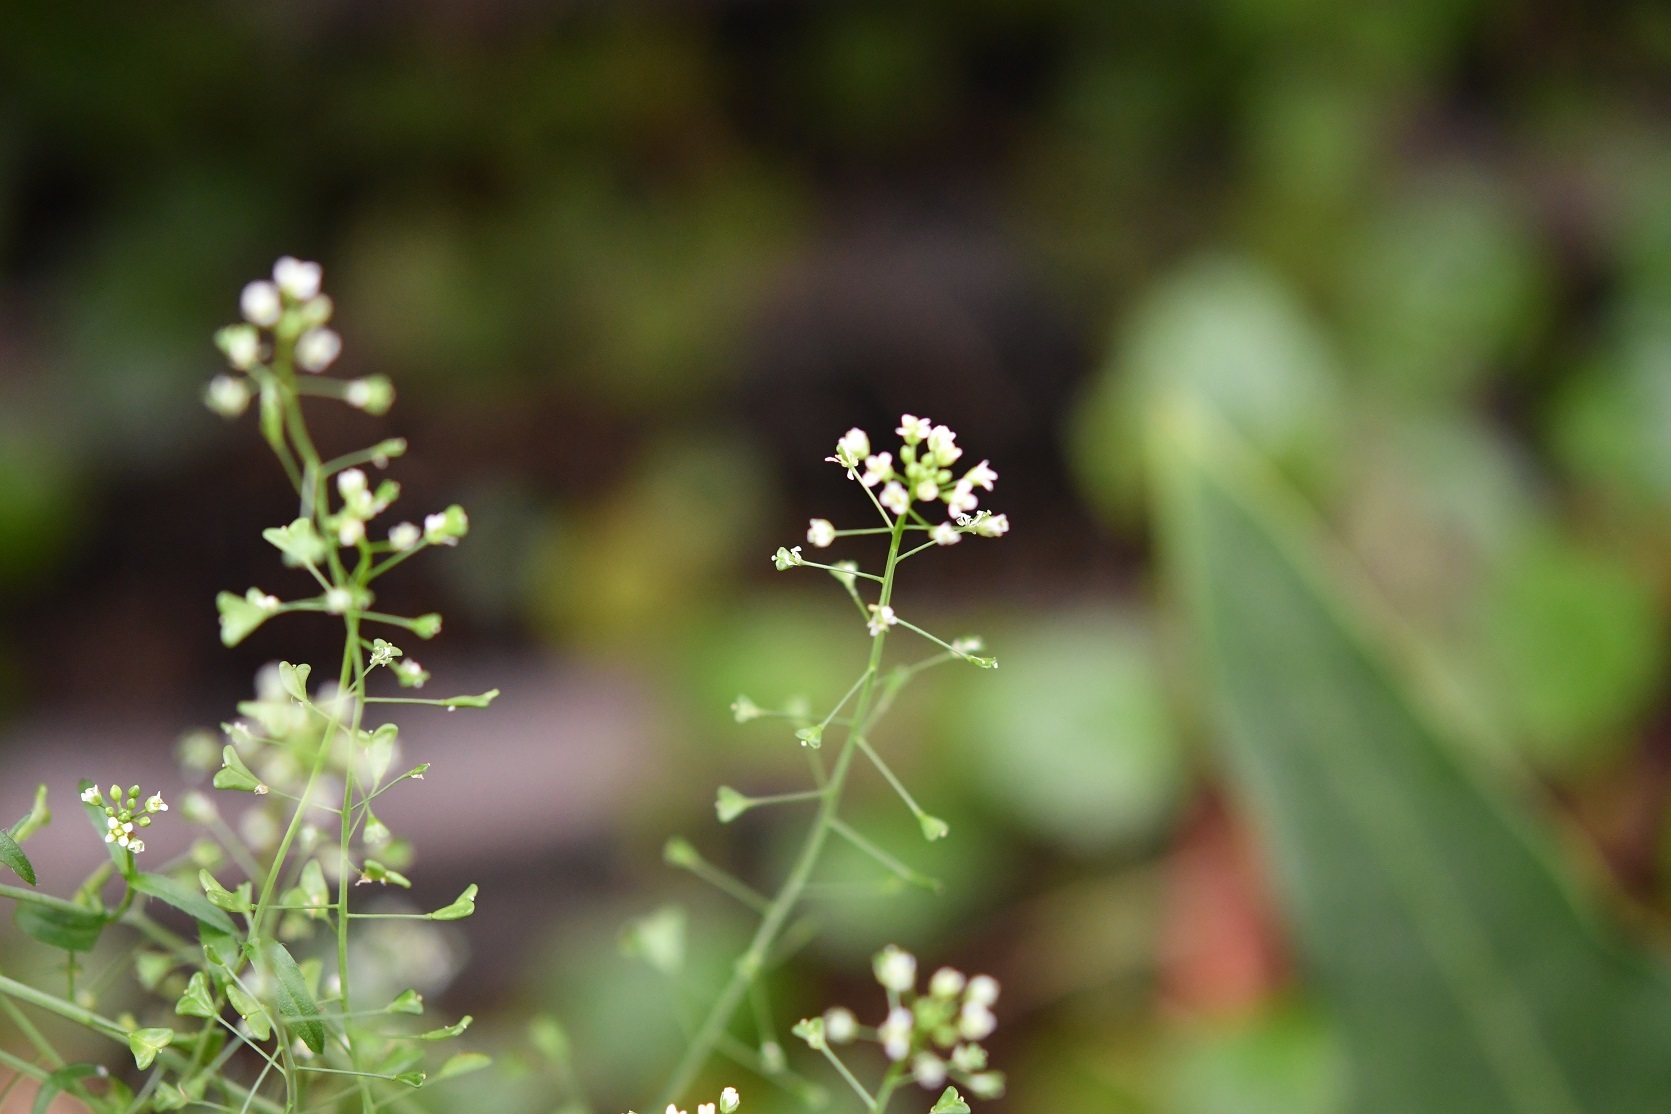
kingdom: Plantae
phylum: Tracheophyta
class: Magnoliopsida
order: Brassicales
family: Brassicaceae
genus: Capsella
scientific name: Capsella bursa-pastoris
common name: Shepherd's purse
